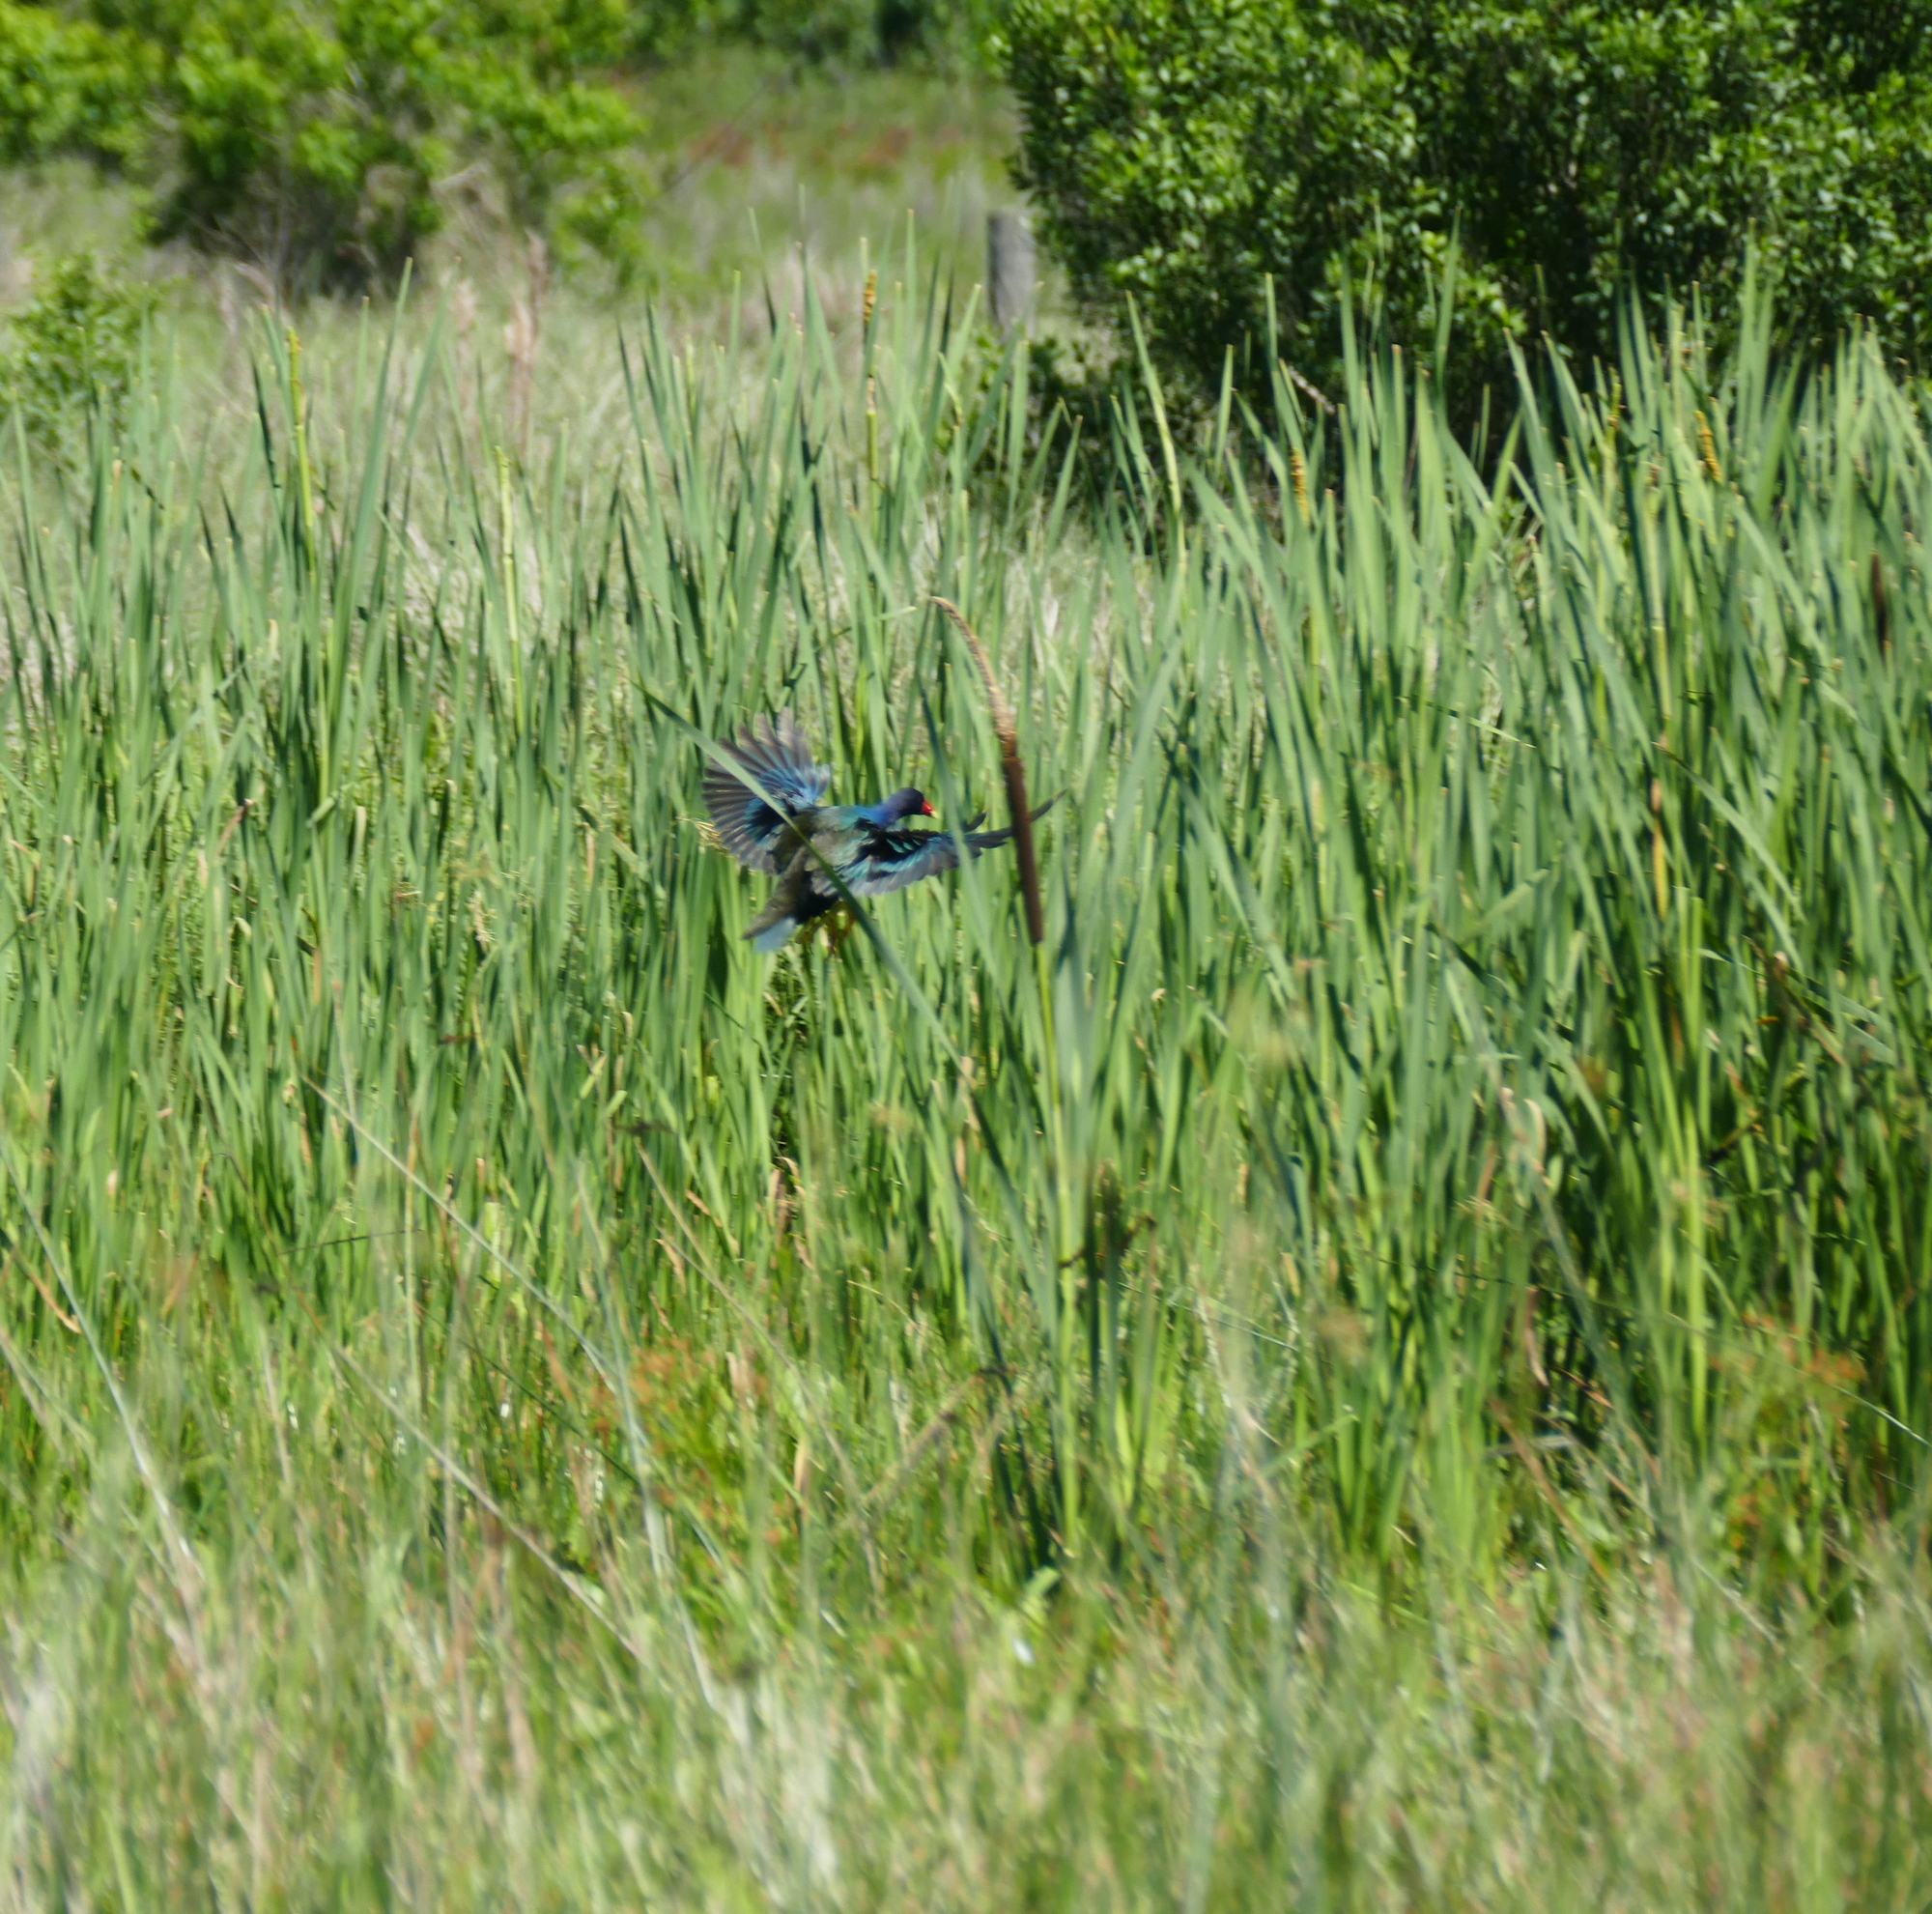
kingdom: Animalia
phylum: Chordata
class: Aves
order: Gruiformes
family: Rallidae
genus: Porphyrio
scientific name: Porphyrio martinica
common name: Purple gallinule
